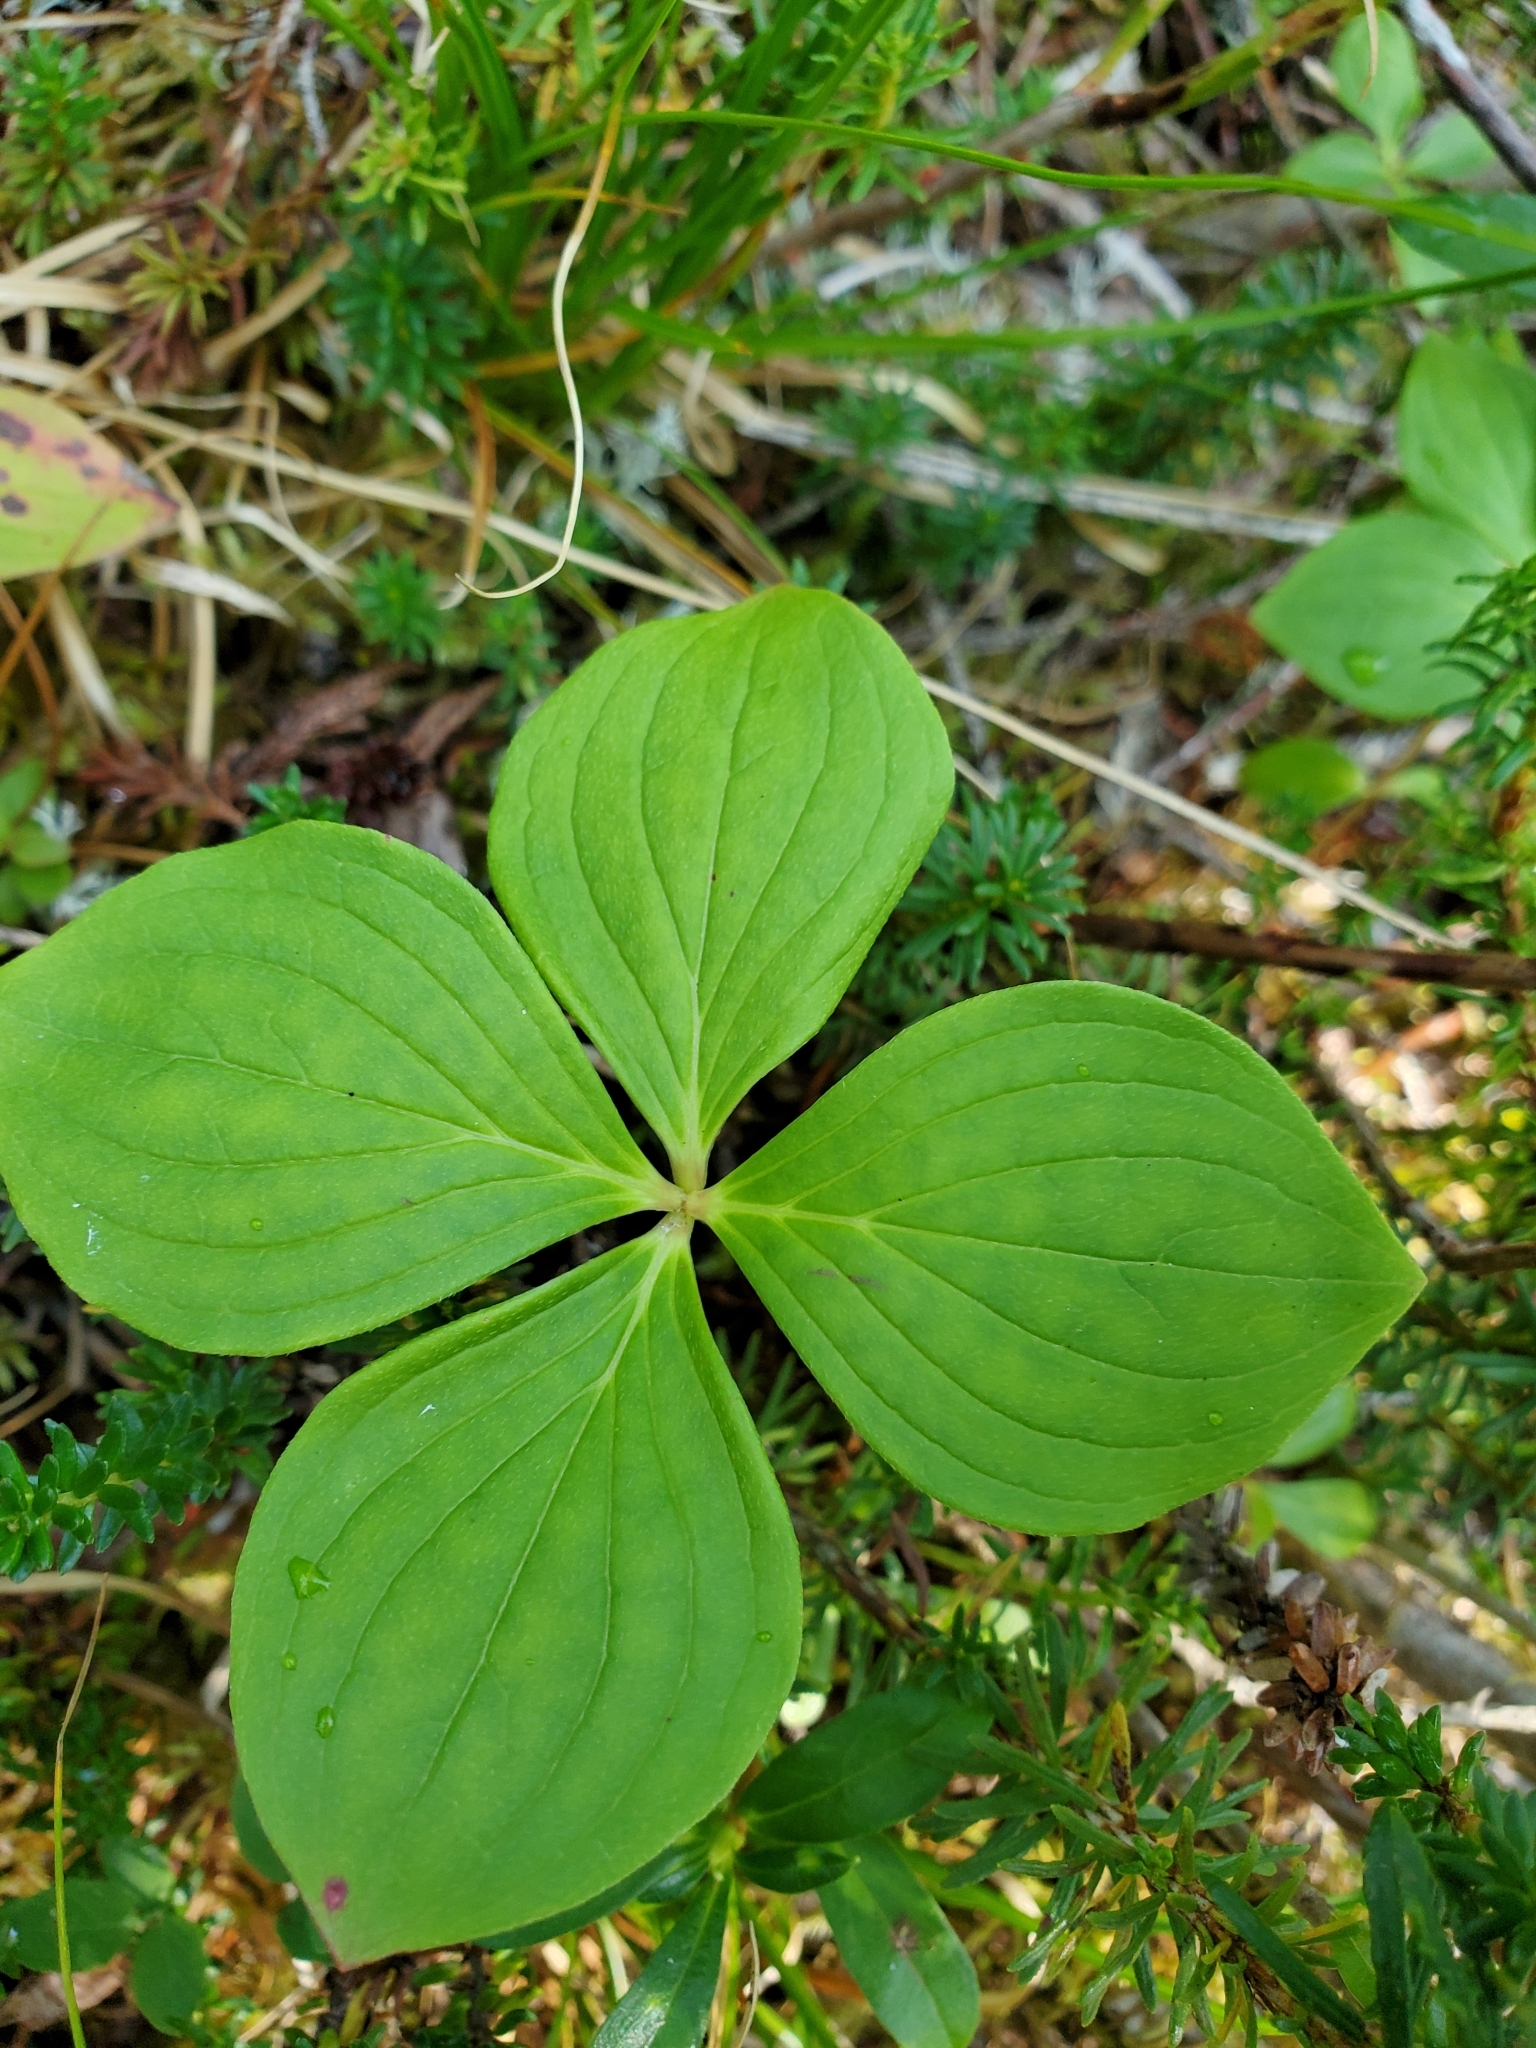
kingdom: Plantae
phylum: Tracheophyta
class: Magnoliopsida
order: Cornales
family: Cornaceae
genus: Cornus
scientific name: Cornus unalaschkensis
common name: Alaska bunchberry
